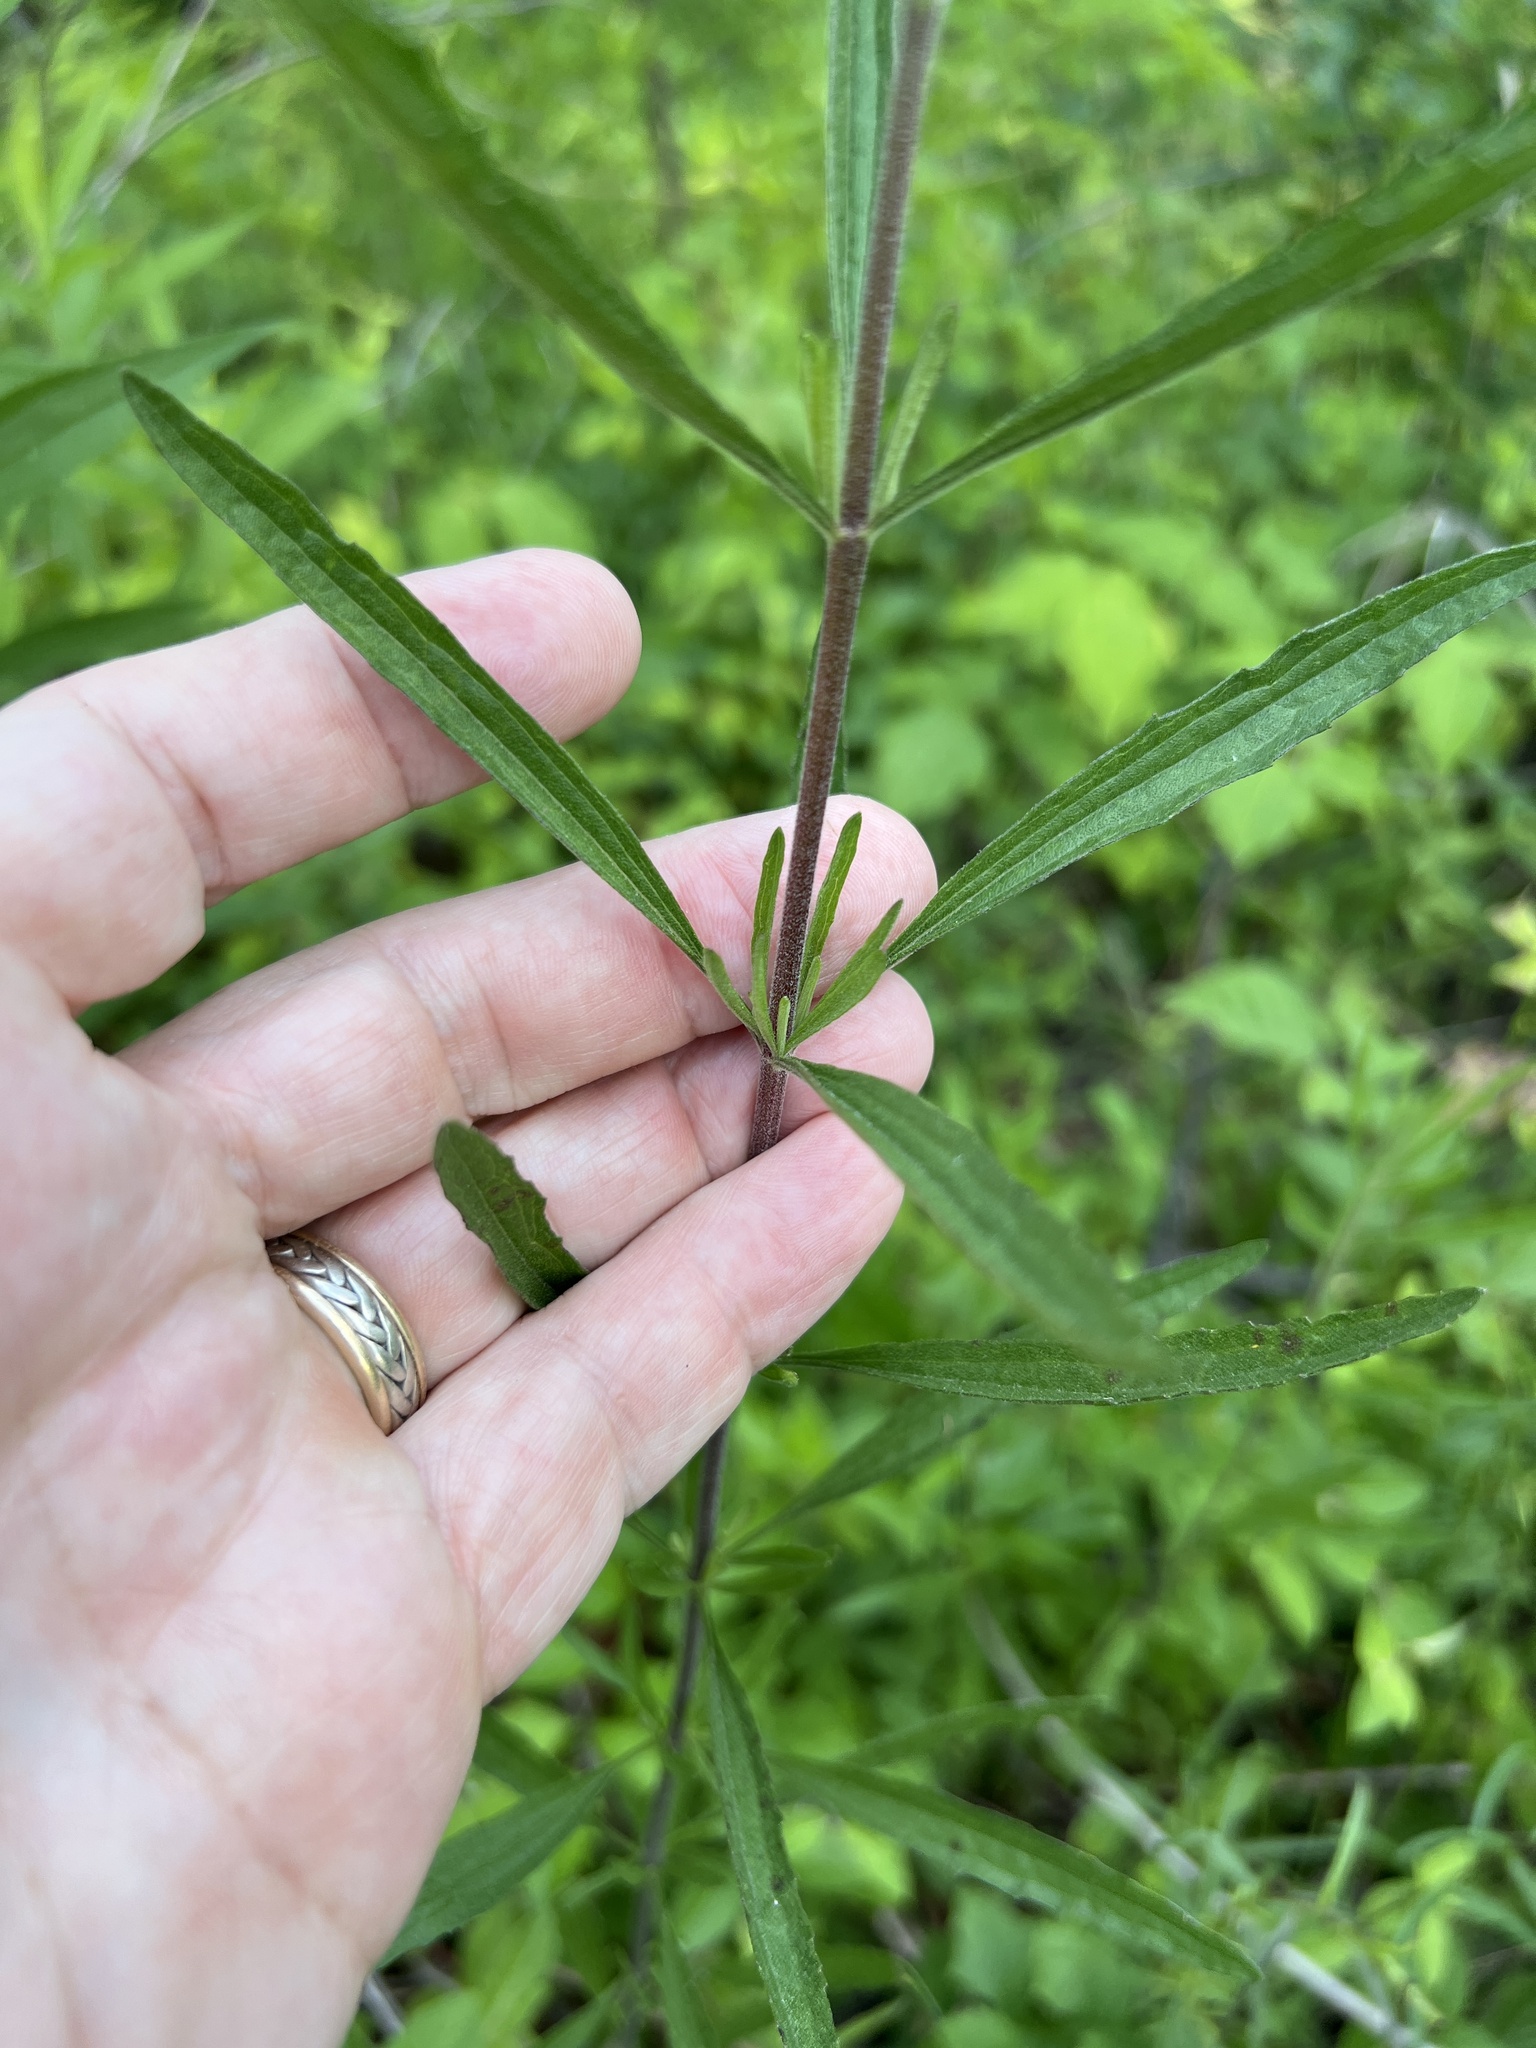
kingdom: Plantae
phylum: Tracheophyta
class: Magnoliopsida
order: Asterales
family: Asteraceae
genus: Eupatorium
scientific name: Eupatorium torreyanum
